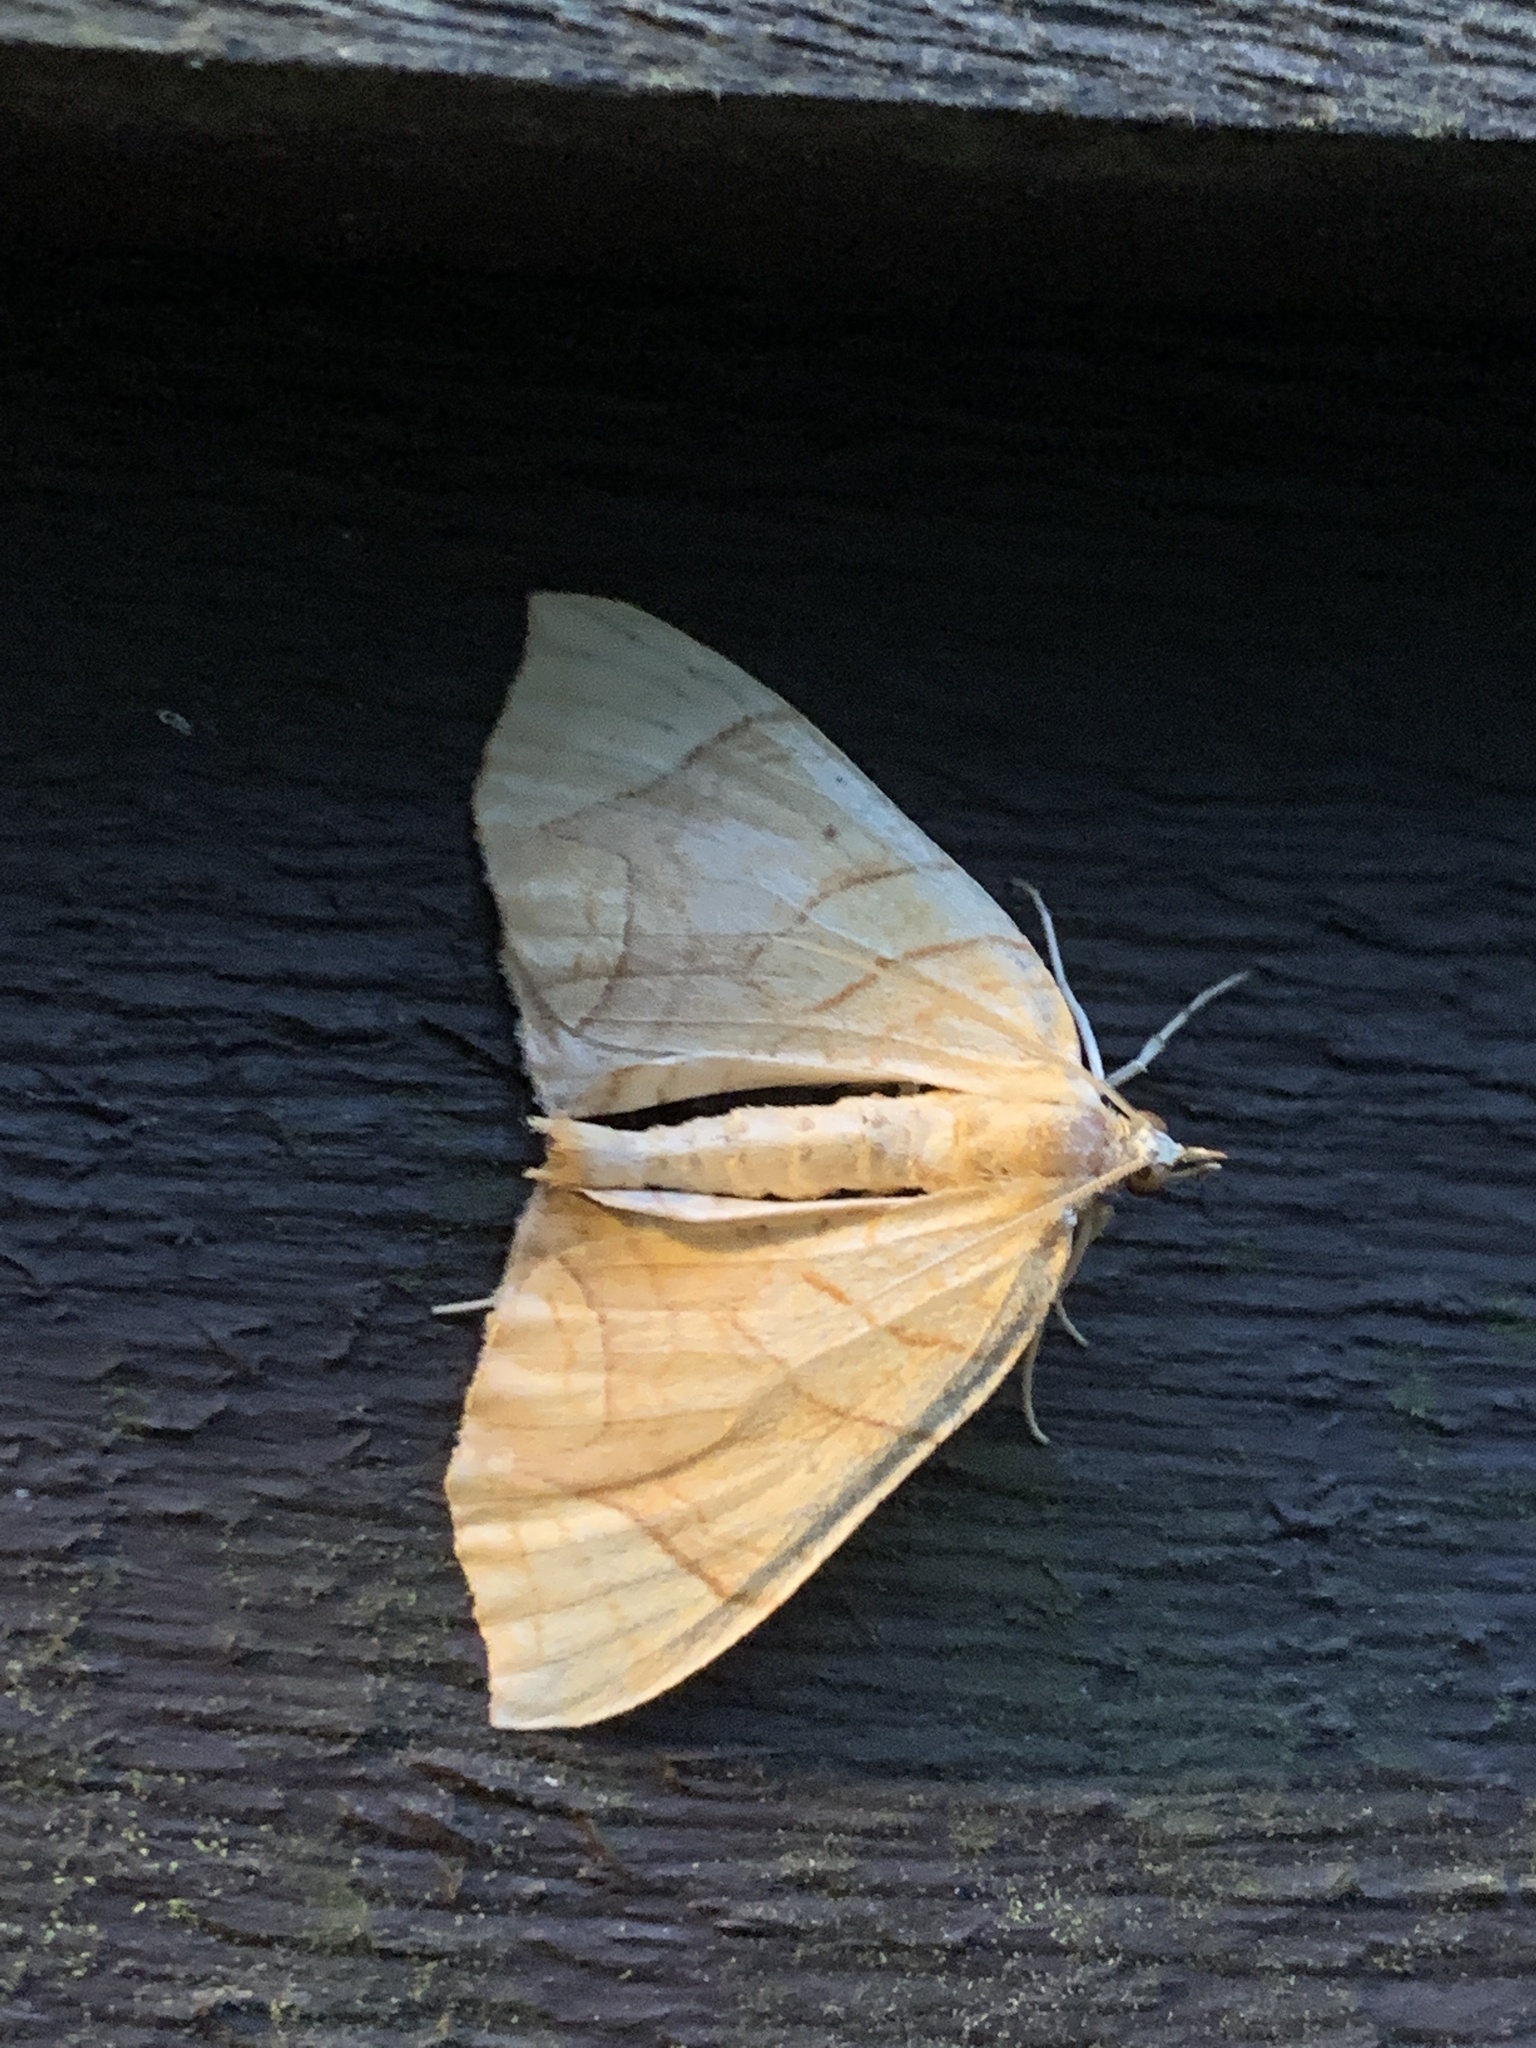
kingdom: Animalia
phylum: Arthropoda
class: Insecta
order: Lepidoptera
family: Geometridae
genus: Eulithis
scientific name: Eulithis
